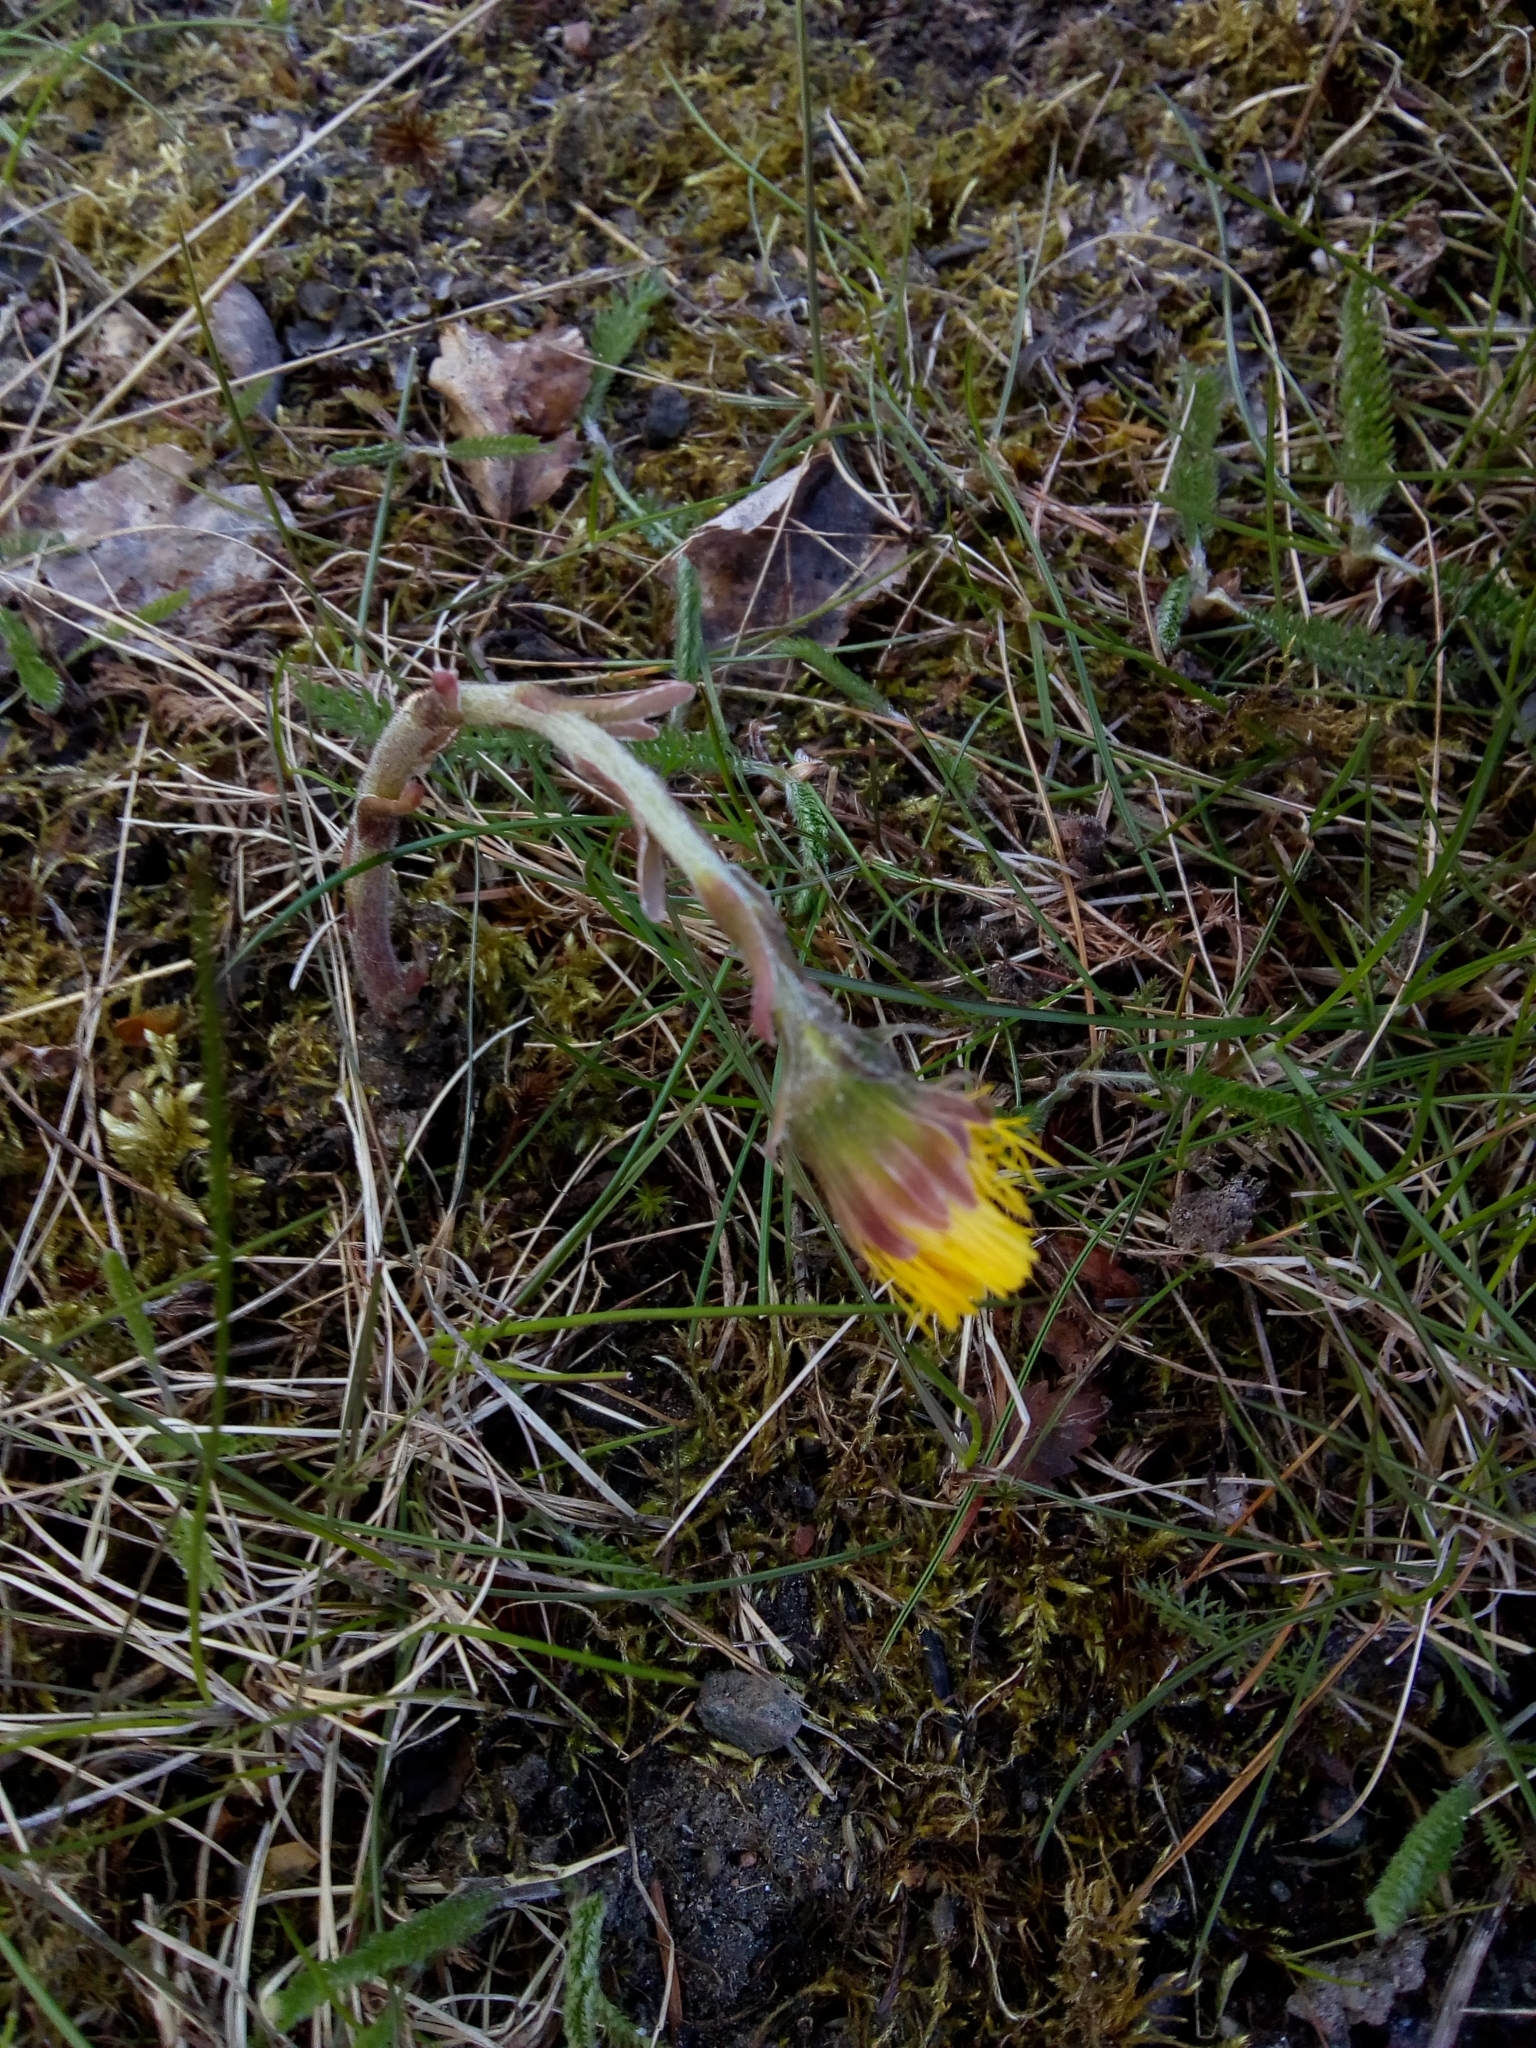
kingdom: Plantae
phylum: Tracheophyta
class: Magnoliopsida
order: Asterales
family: Asteraceae
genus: Tussilago
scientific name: Tussilago farfara
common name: Coltsfoot
